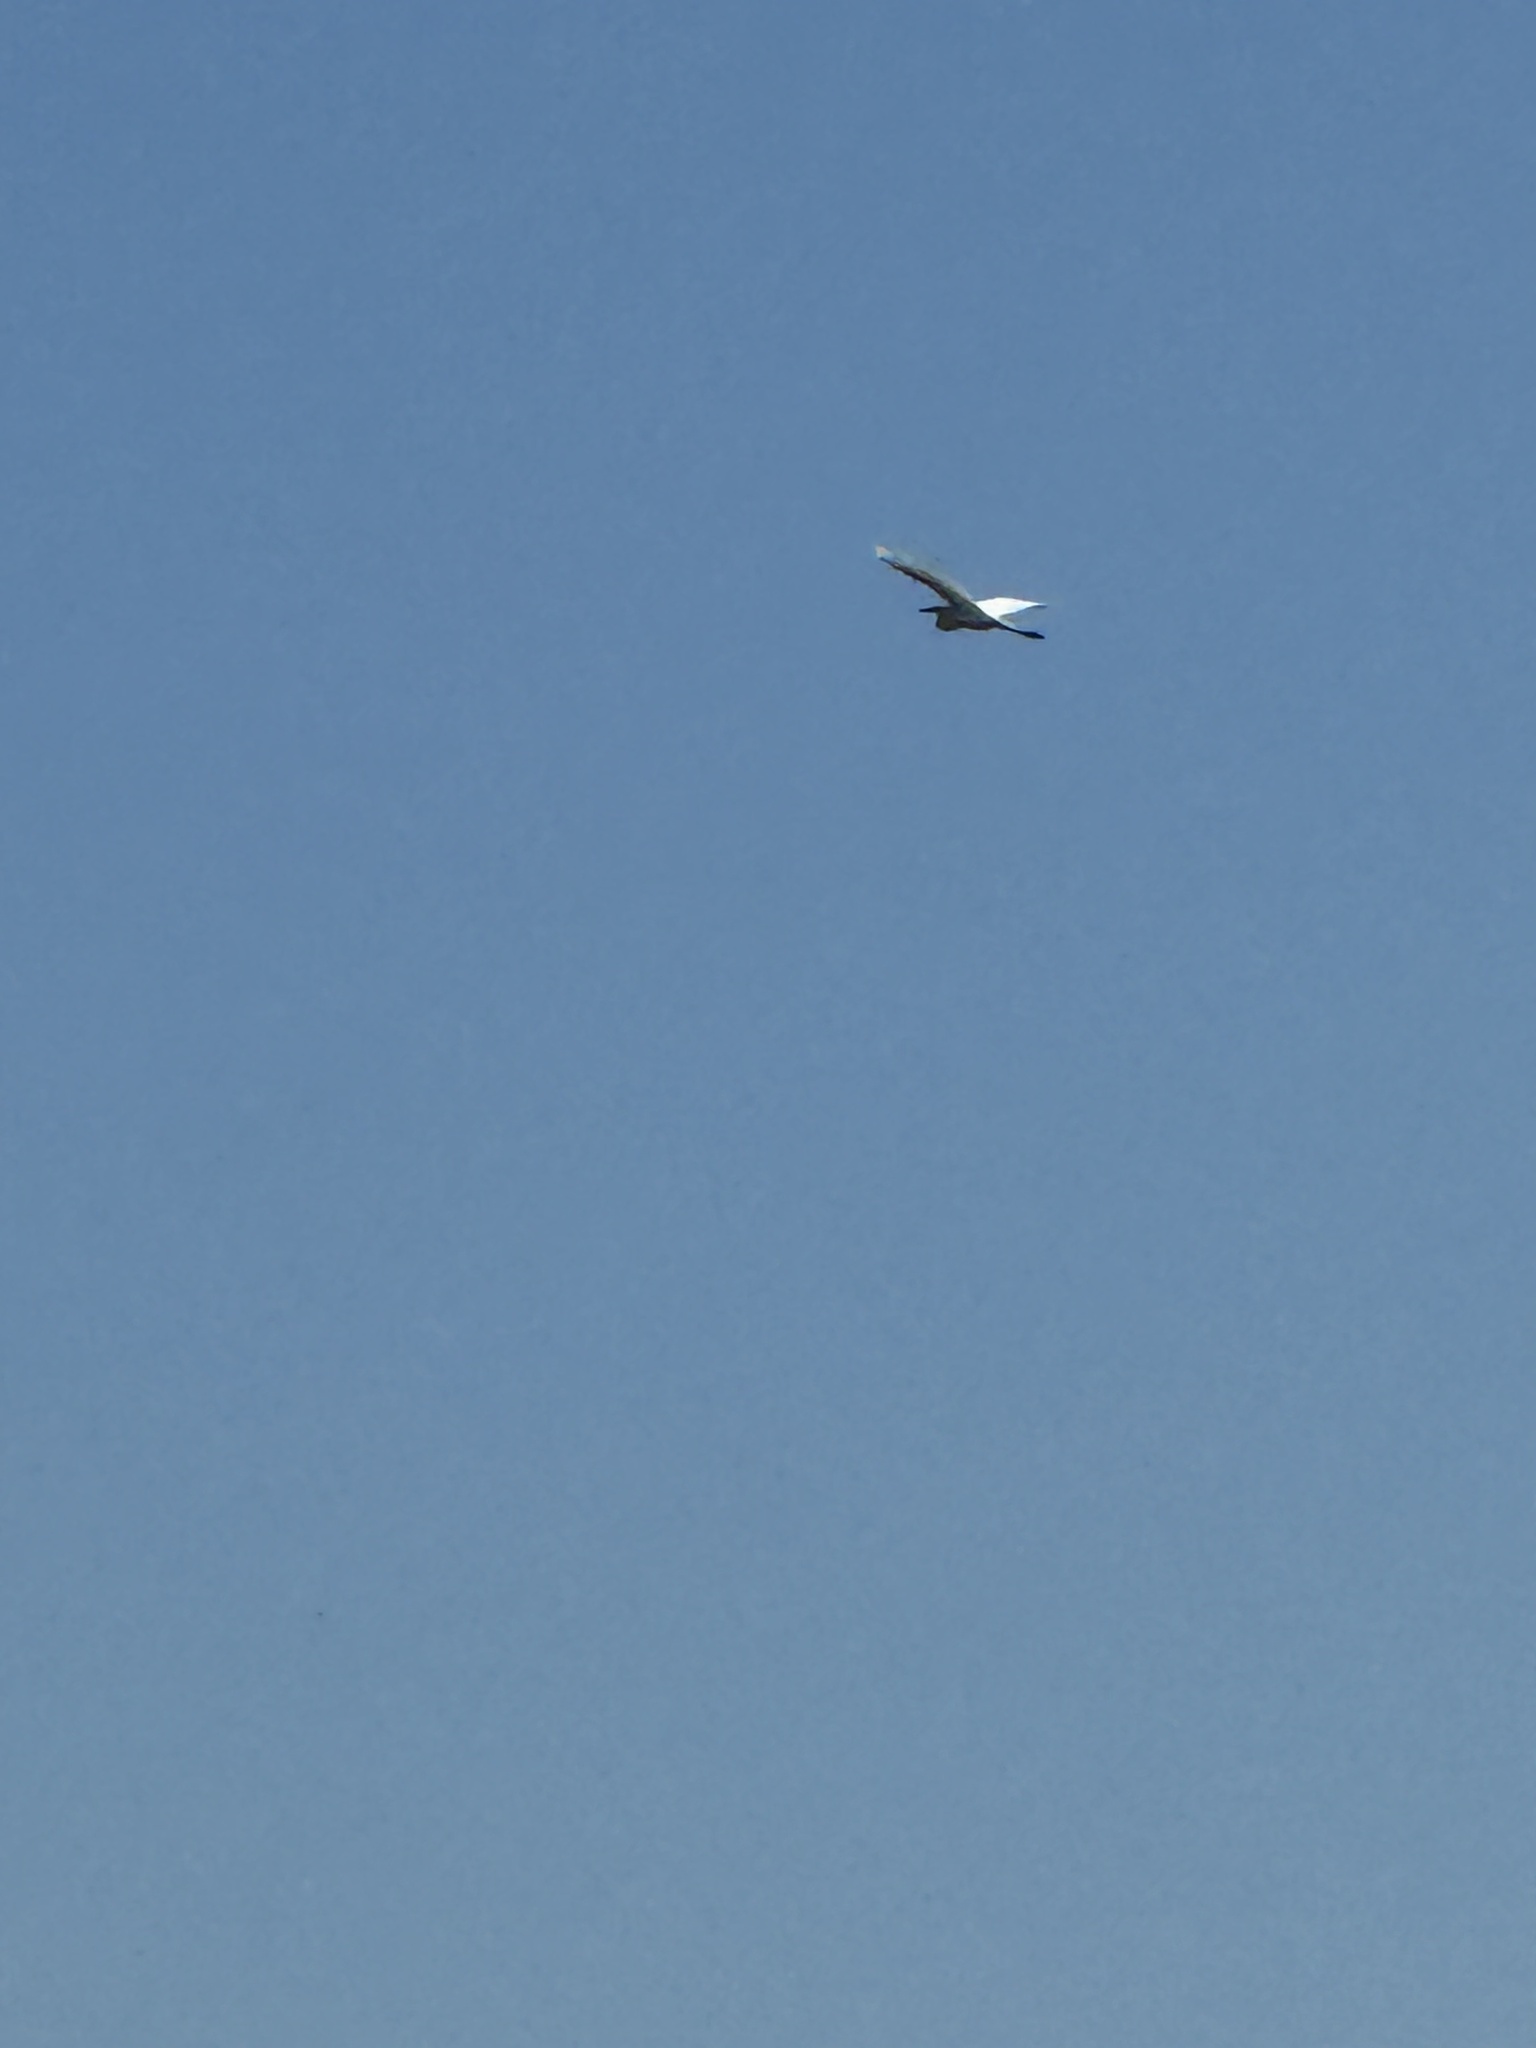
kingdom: Animalia
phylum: Chordata
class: Aves
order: Pelecaniformes
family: Ardeidae
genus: Ardea
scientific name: Ardea alba
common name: Great egret
